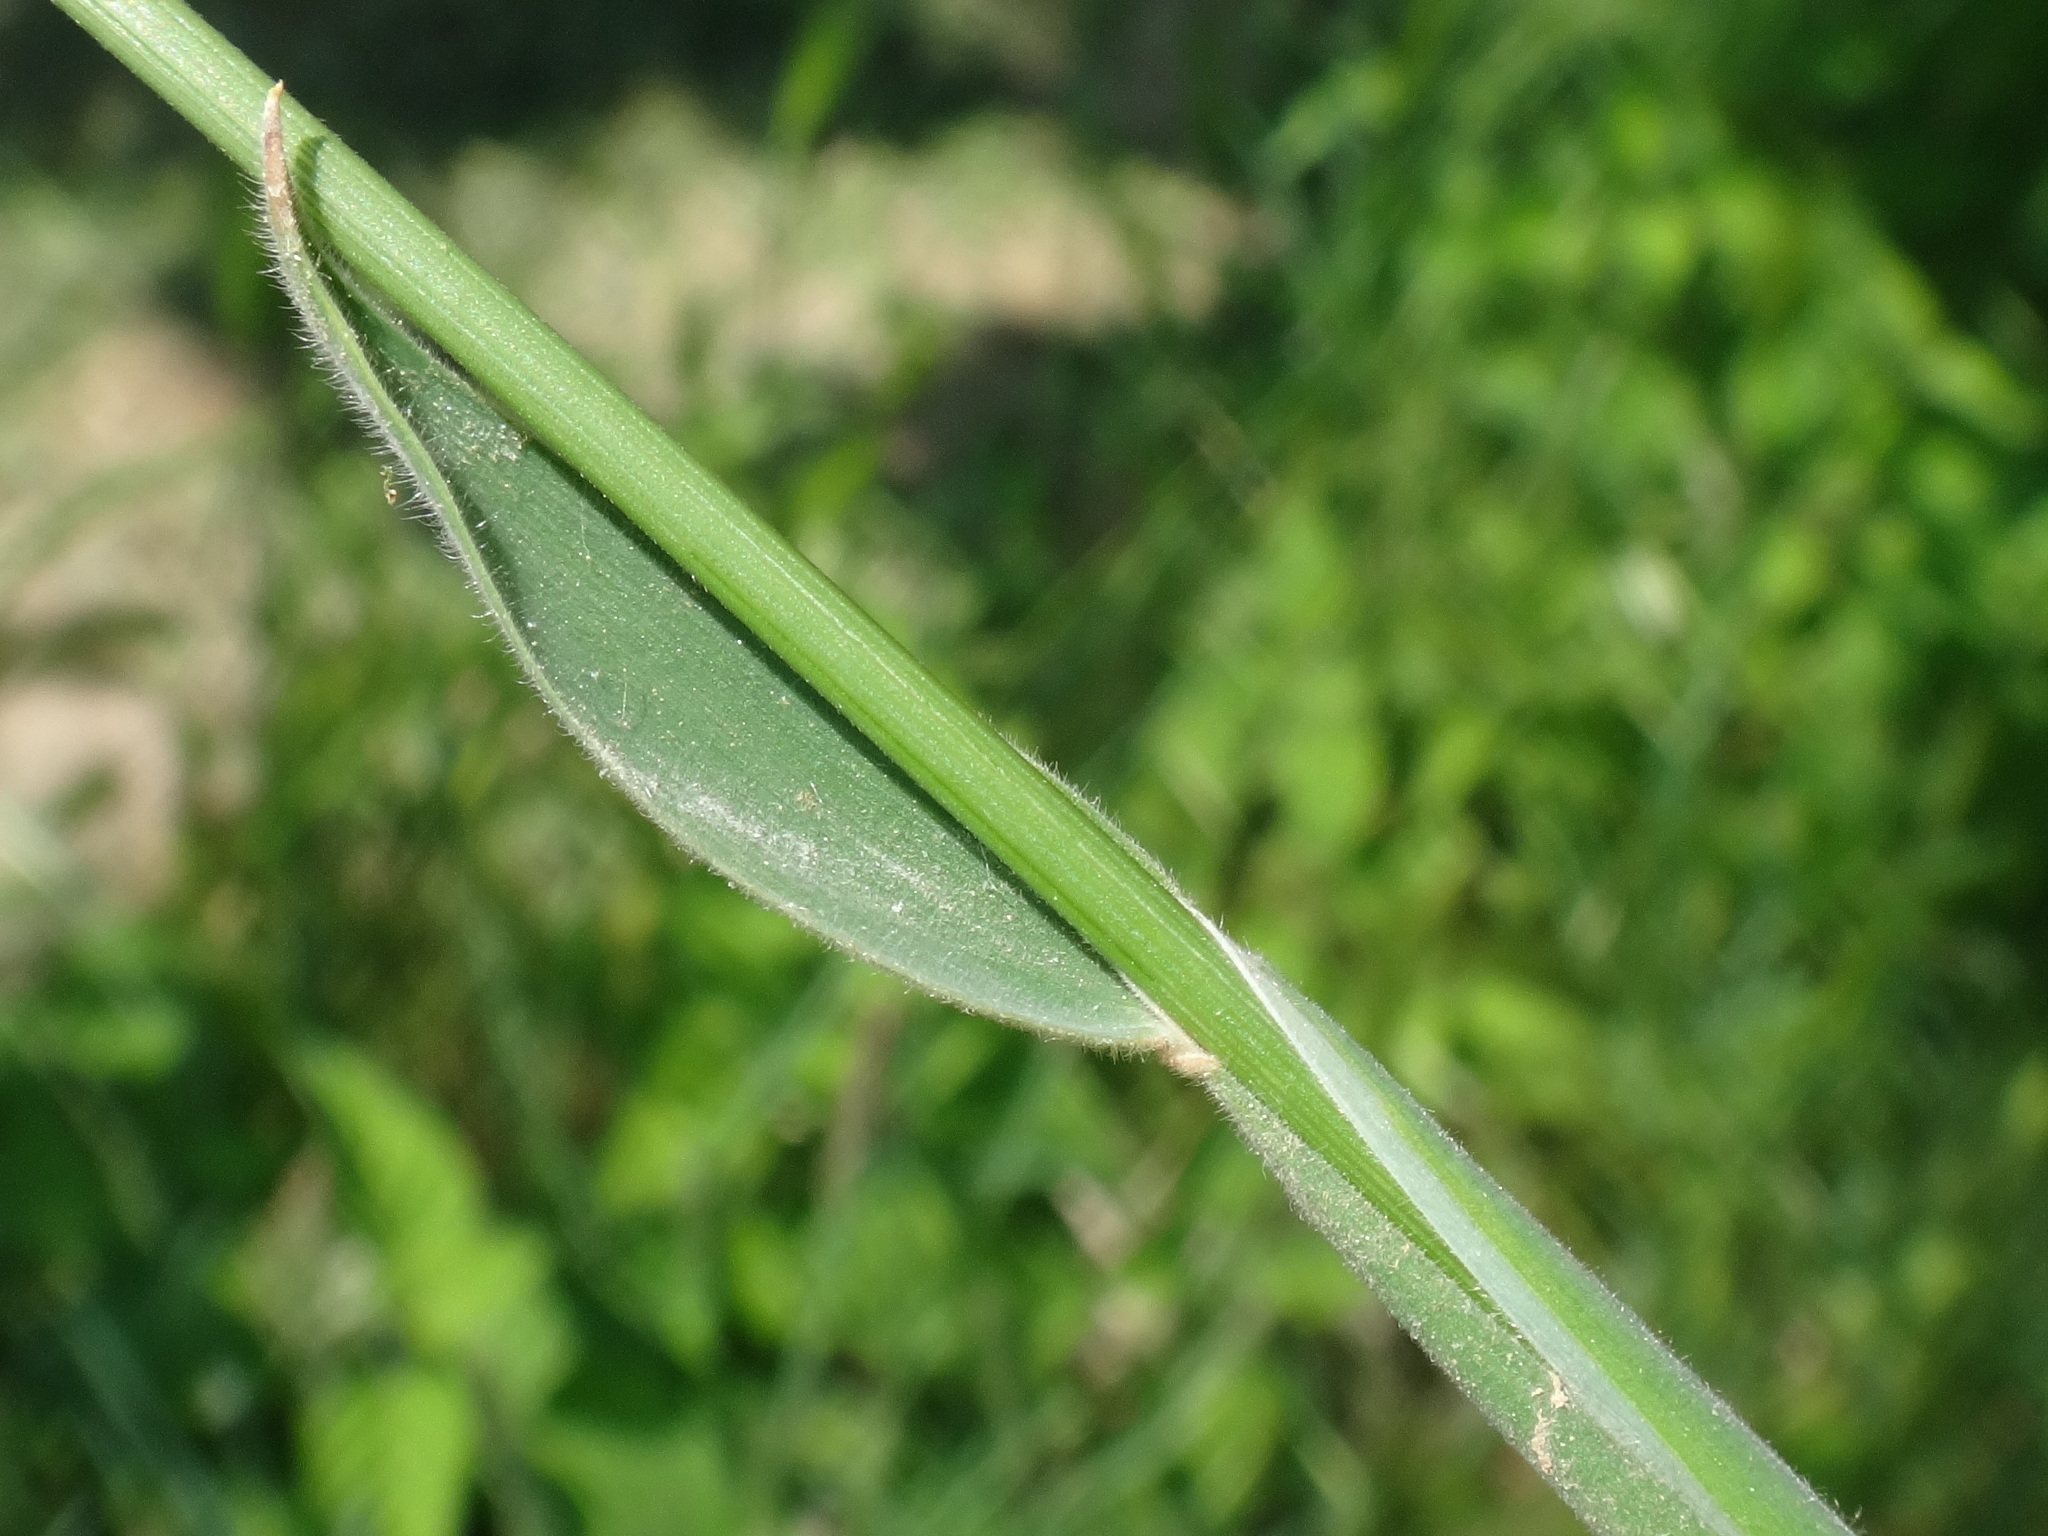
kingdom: Plantae
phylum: Tracheophyta
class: Liliopsida
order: Poales
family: Poaceae
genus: Holcus
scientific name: Holcus lanatus
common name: Yorkshire-fog
